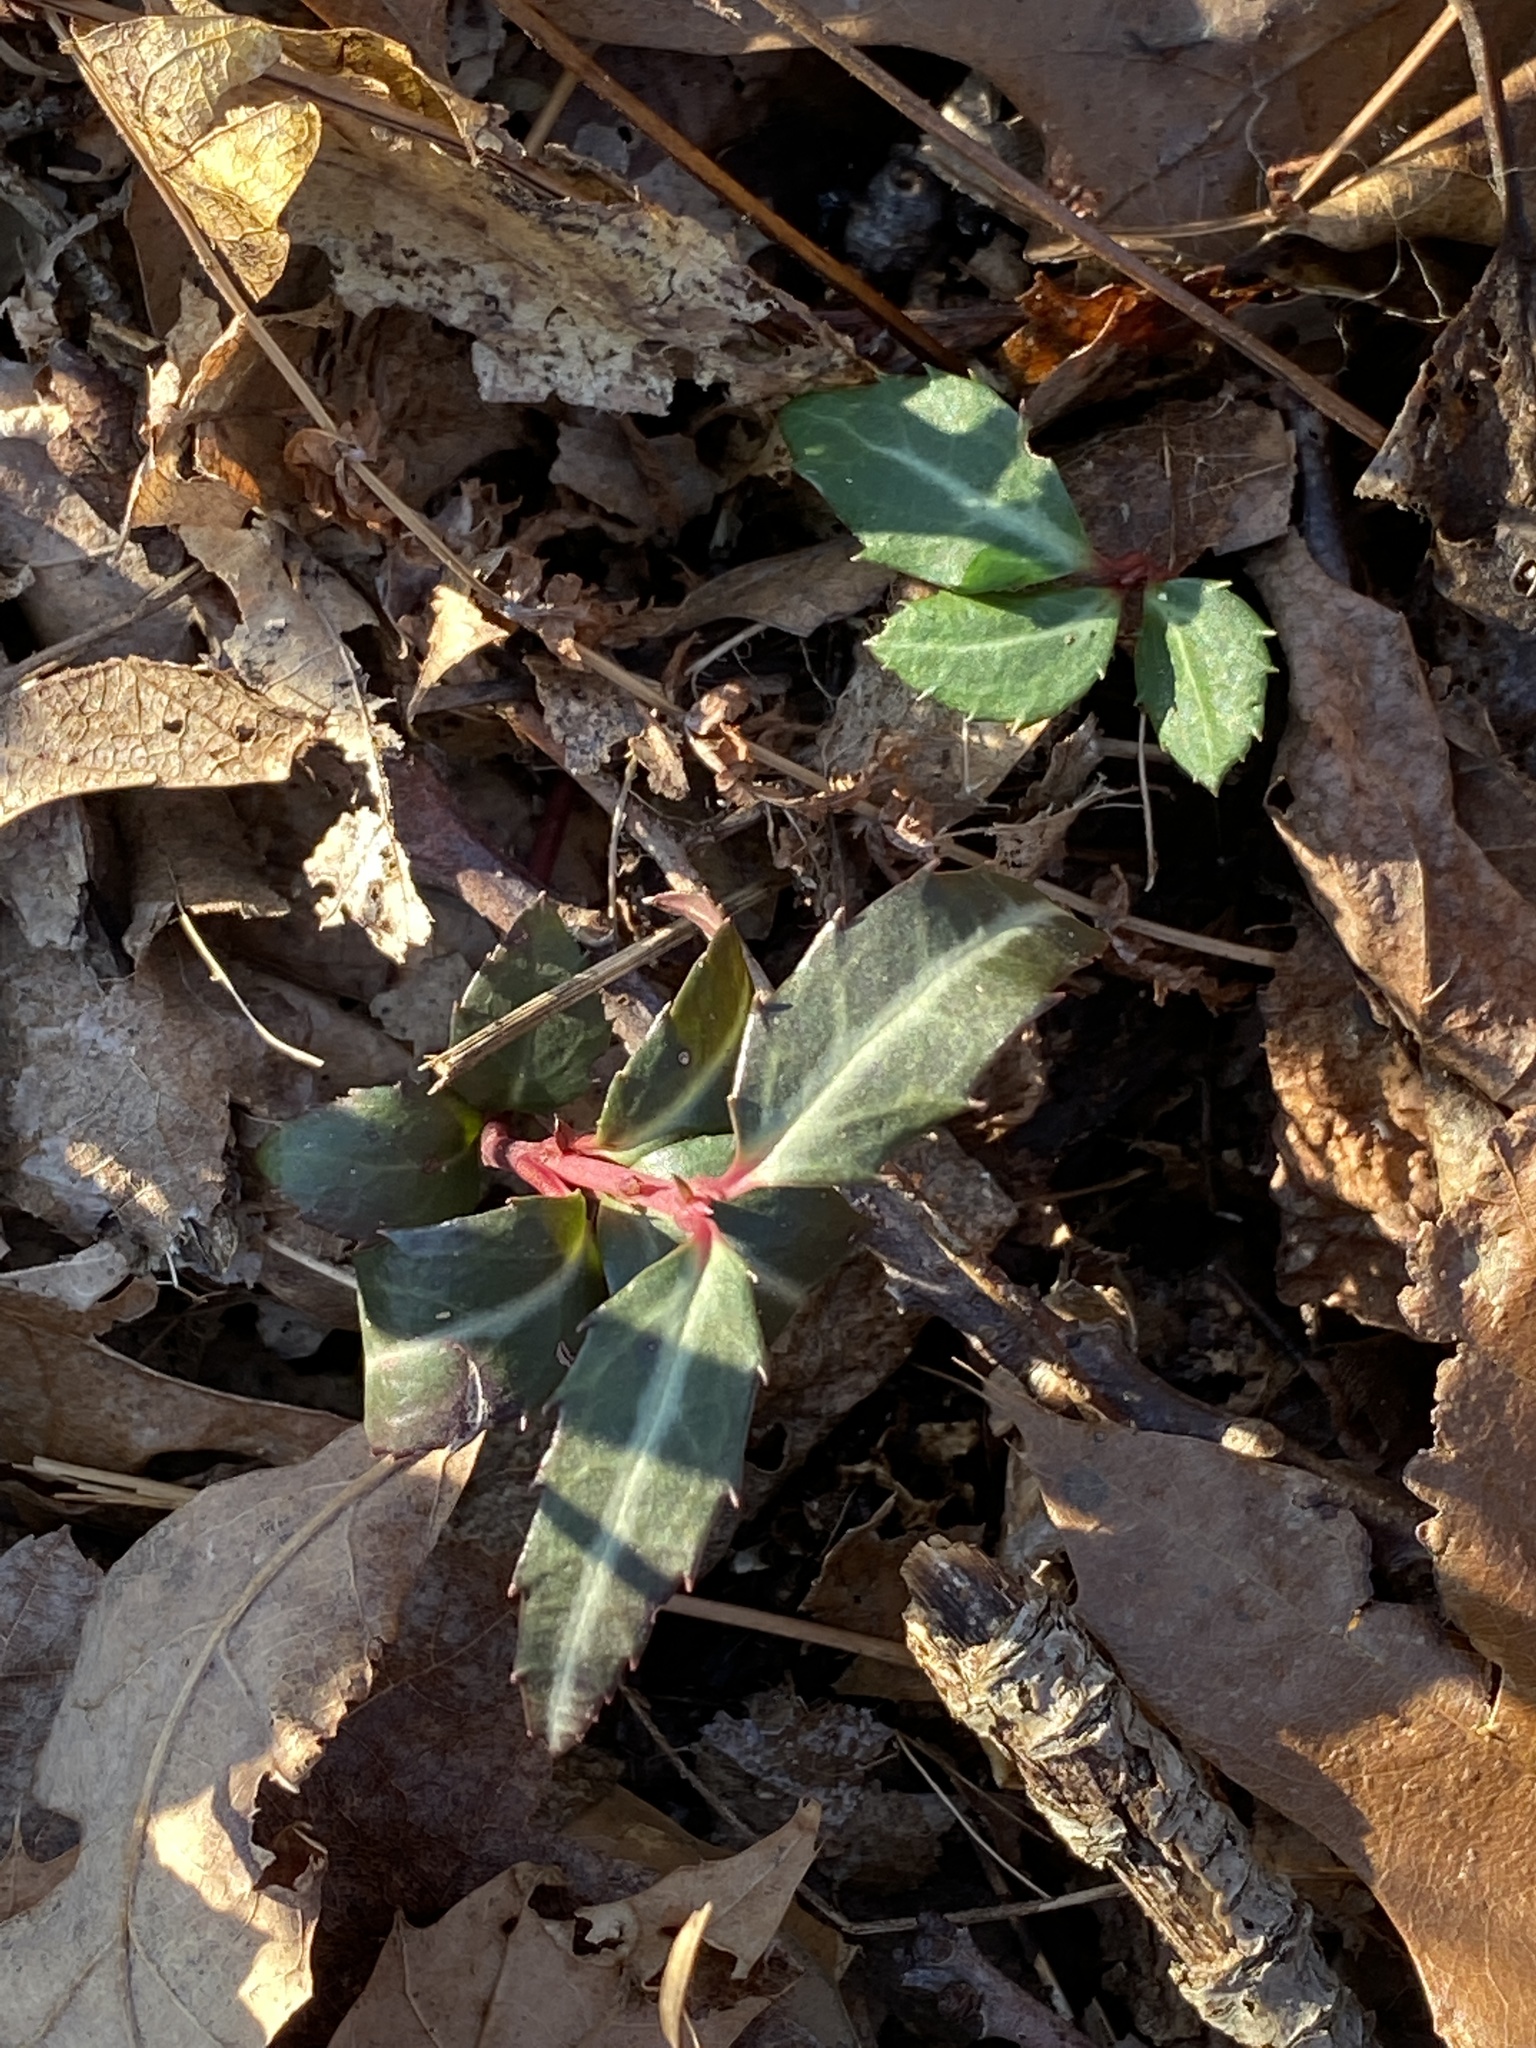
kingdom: Plantae
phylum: Tracheophyta
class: Magnoliopsida
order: Ericales
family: Ericaceae
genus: Chimaphila
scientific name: Chimaphila maculata
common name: Spotted pipsissewa
